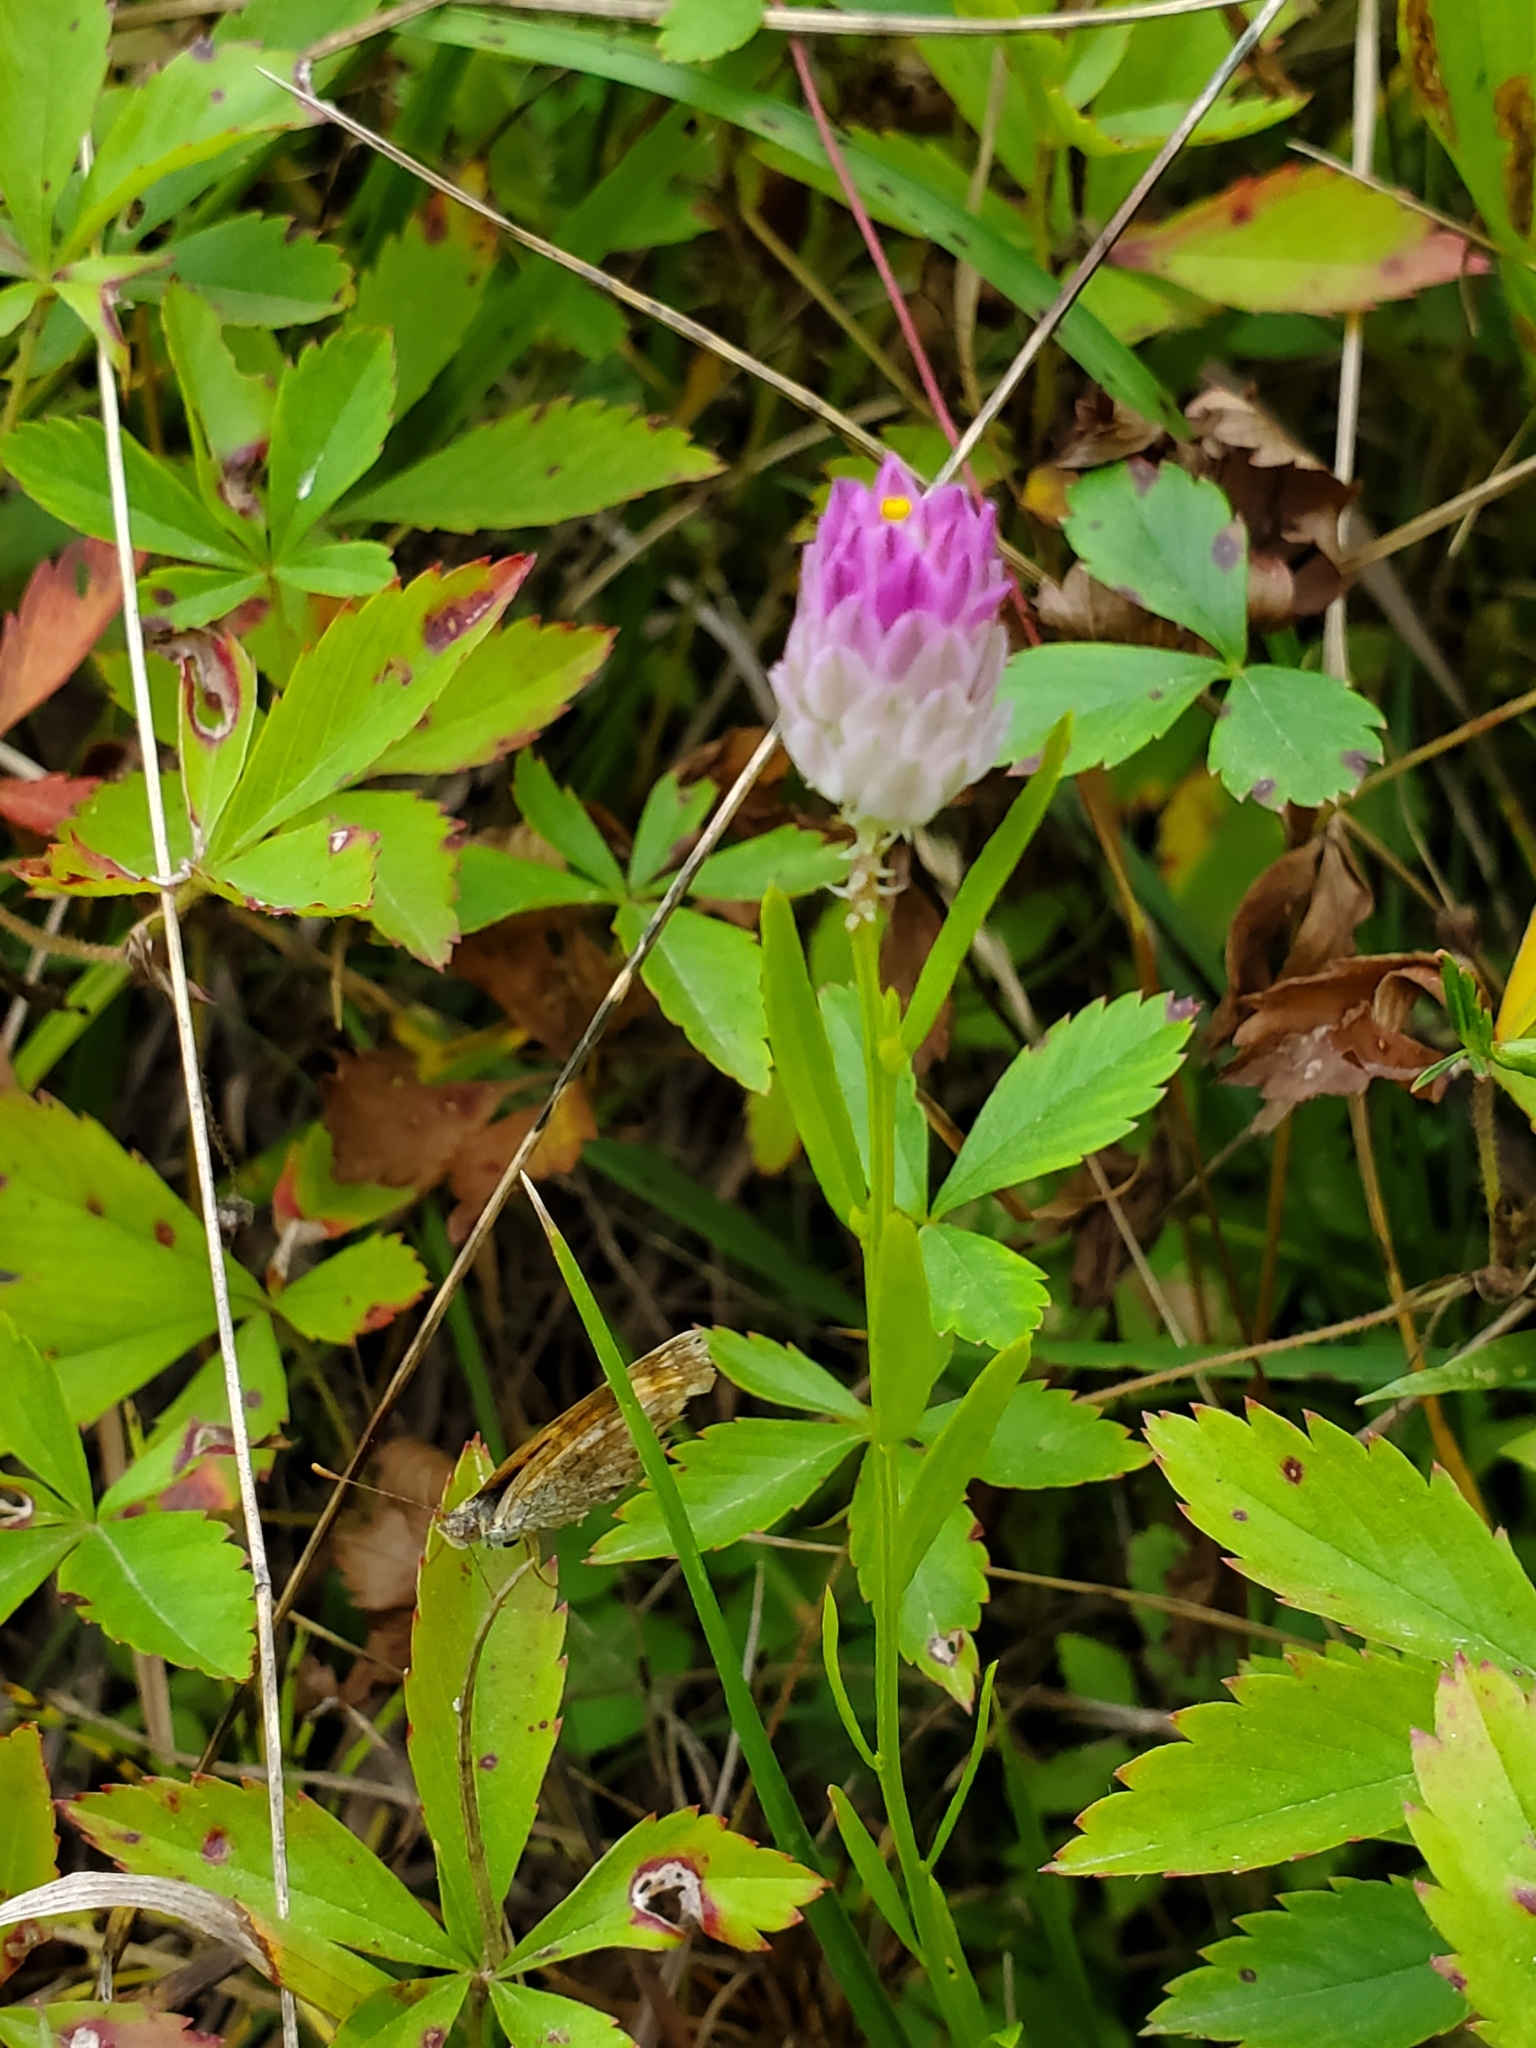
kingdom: Plantae
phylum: Tracheophyta
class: Magnoliopsida
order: Fabales
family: Polygalaceae
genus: Polygala
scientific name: Polygala sanguinea
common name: Blood milkwort
